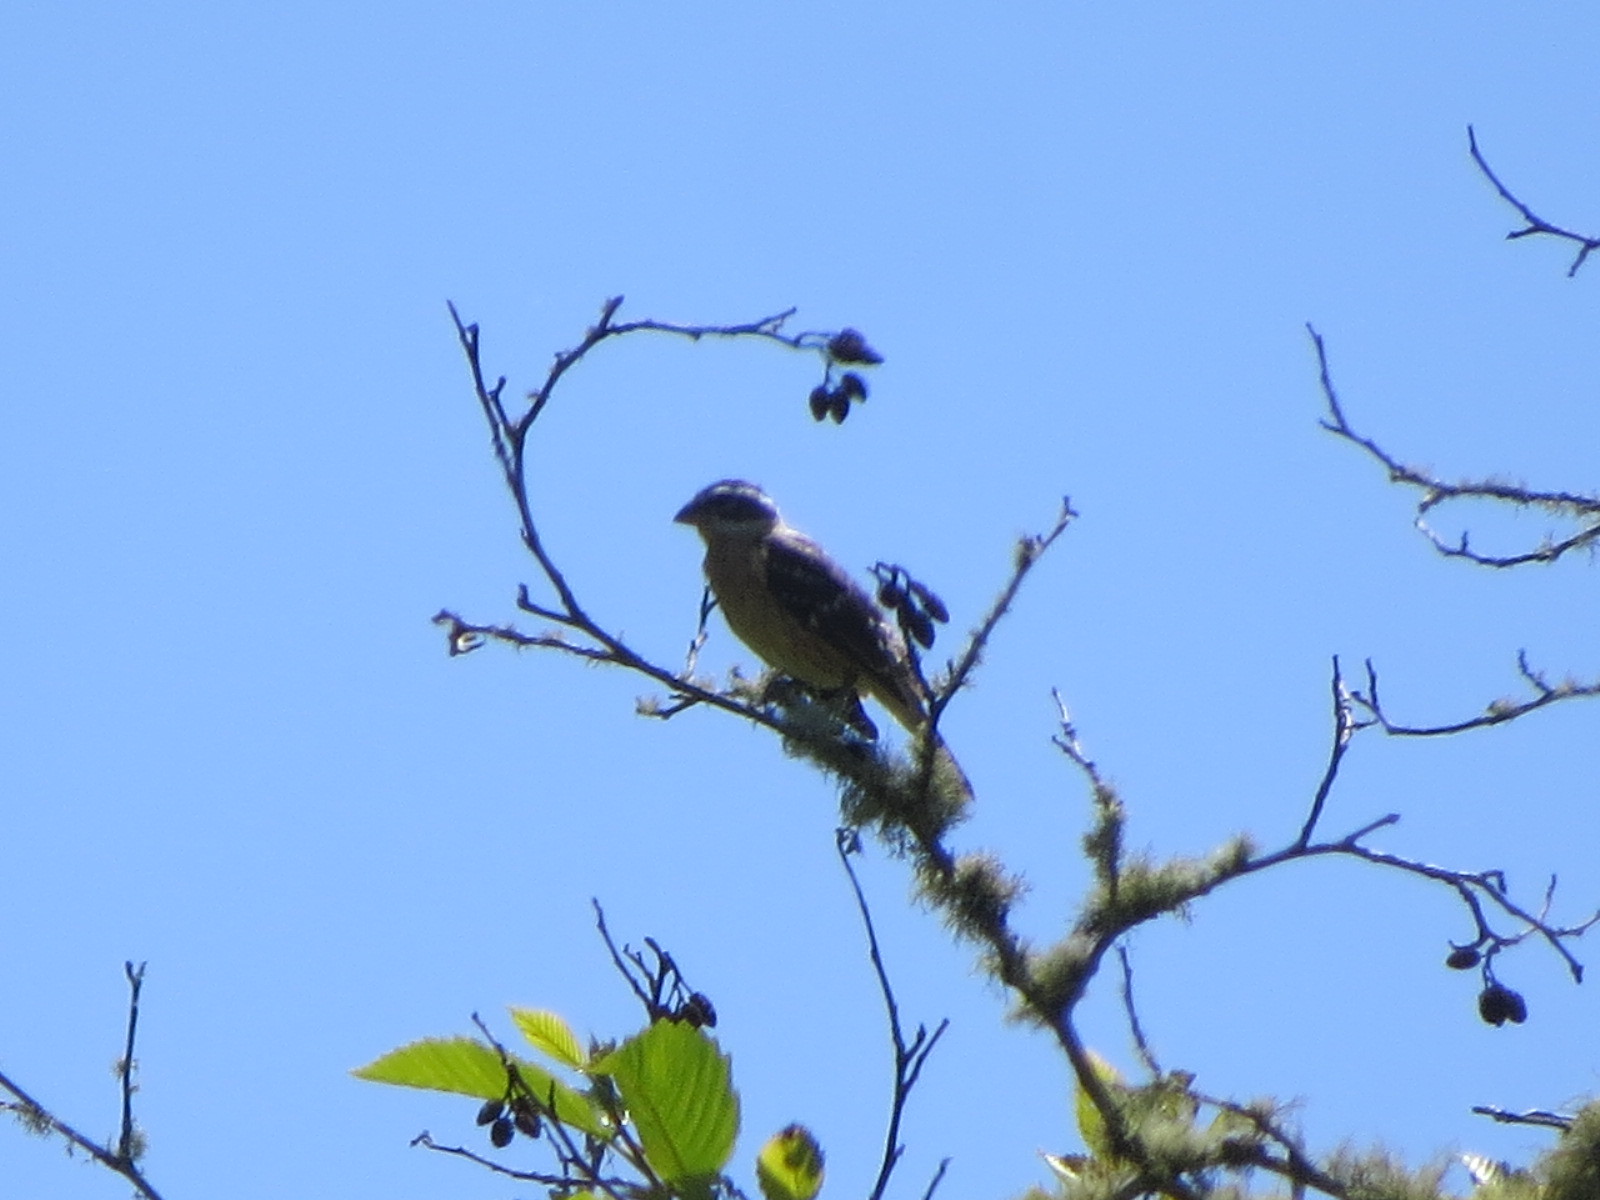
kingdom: Animalia
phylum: Chordata
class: Aves
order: Passeriformes
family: Cardinalidae
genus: Pheucticus
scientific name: Pheucticus melanocephalus
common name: Black-headed grosbeak
